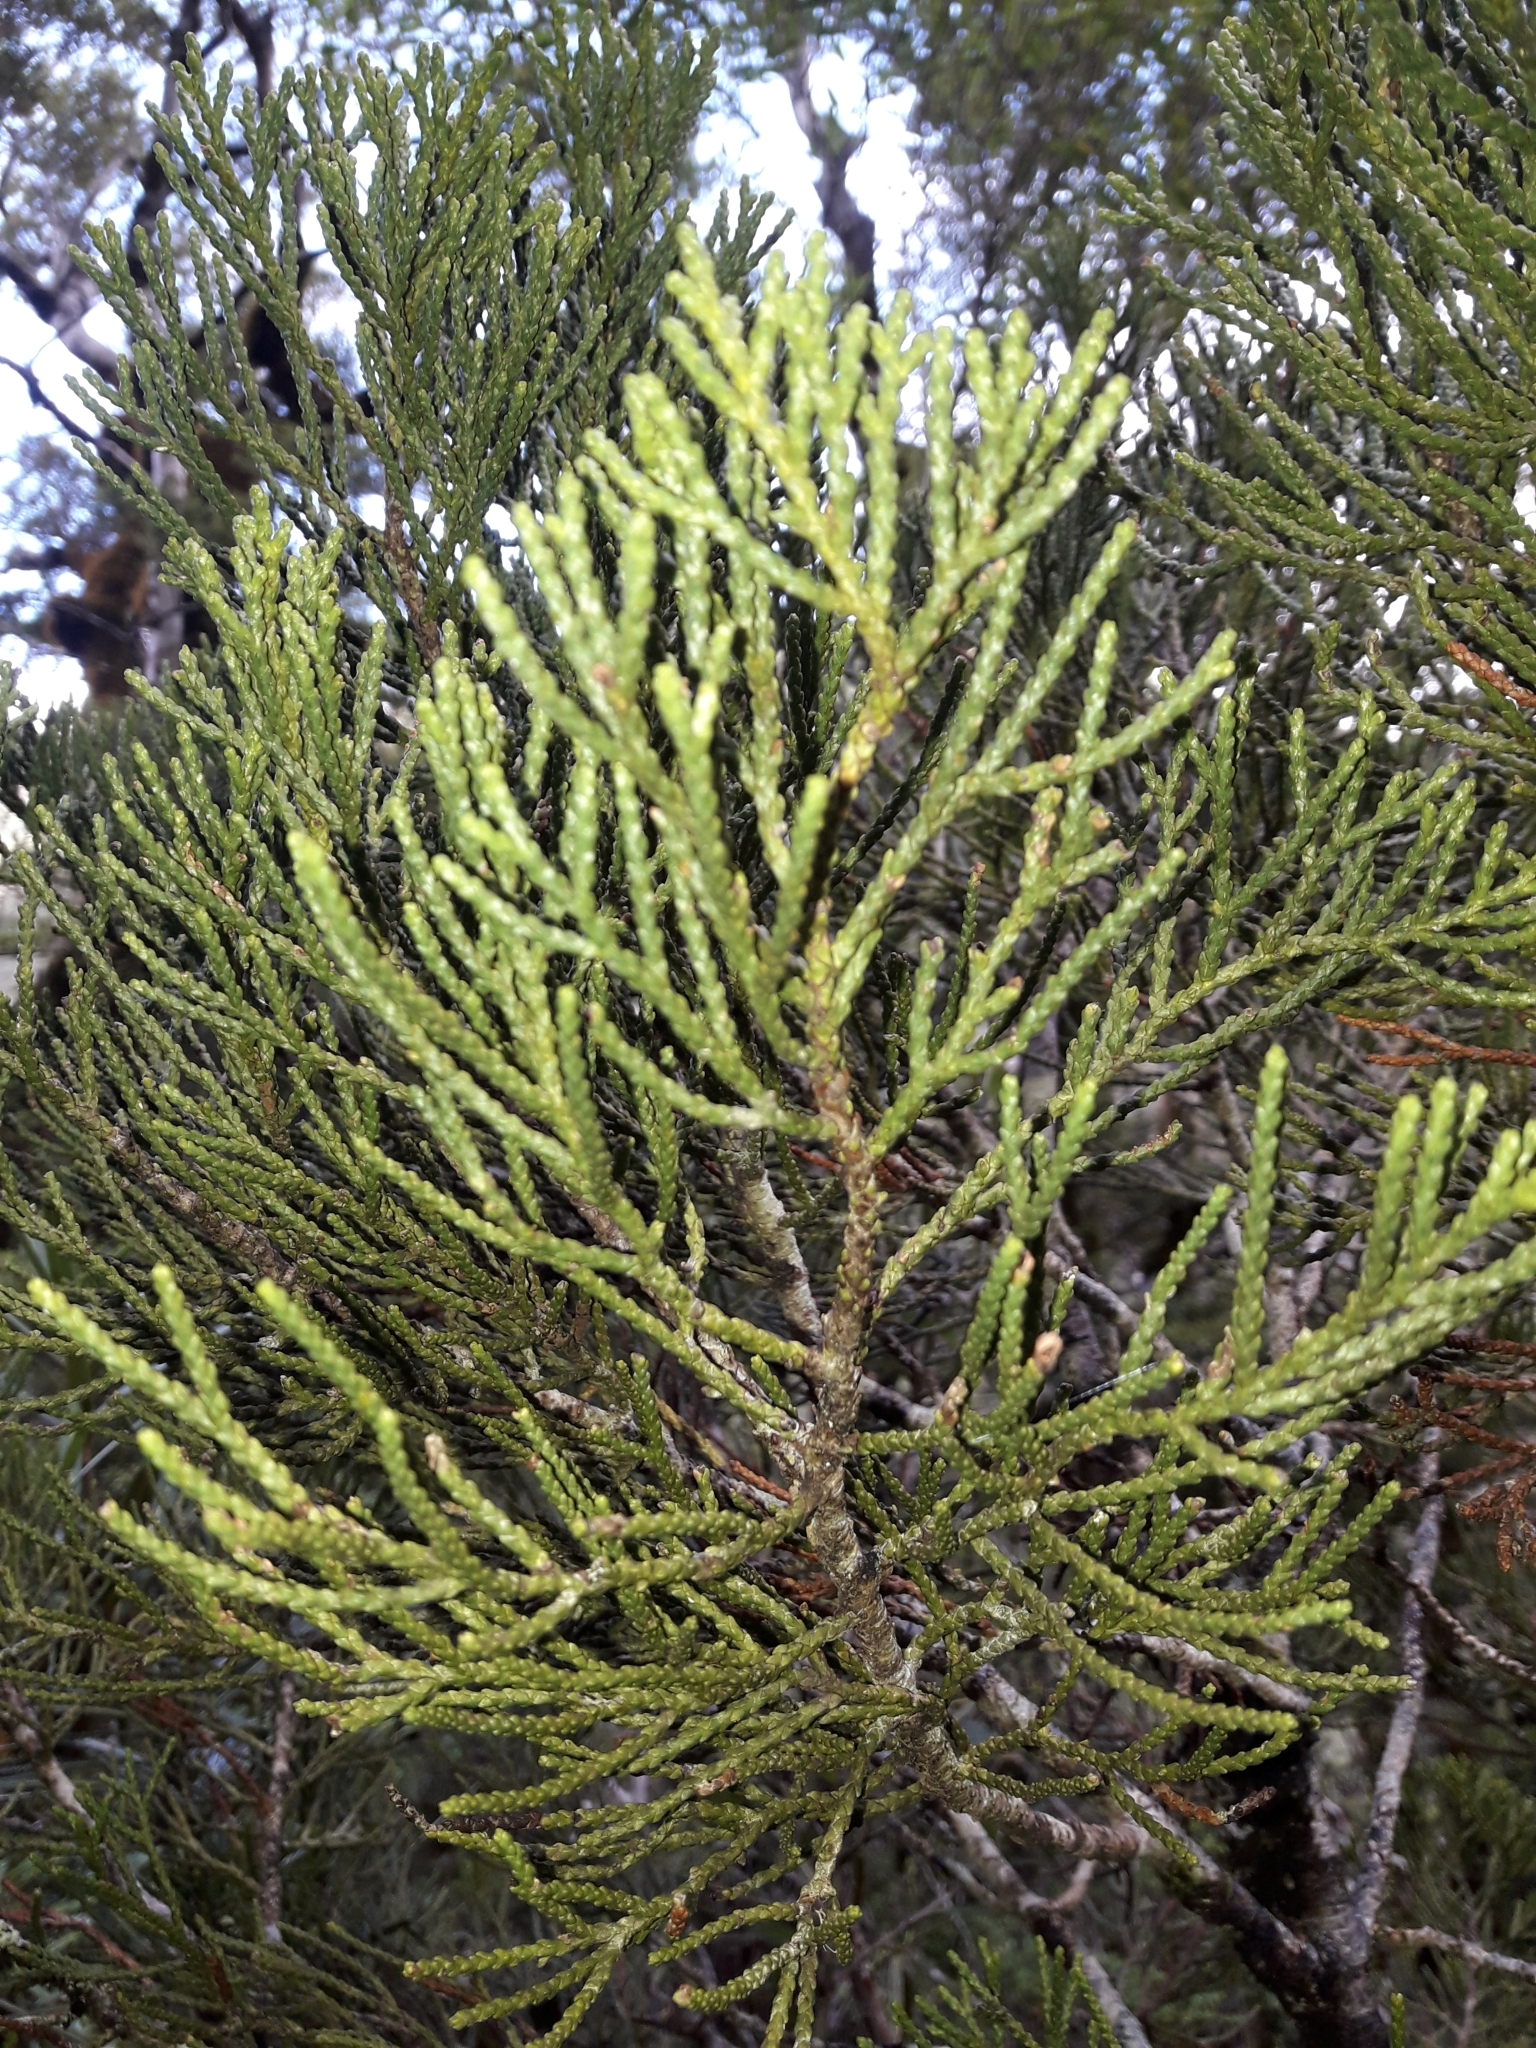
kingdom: Plantae
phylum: Tracheophyta
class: Pinopsida
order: Pinales
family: Podocarpaceae
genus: Halocarpus
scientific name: Halocarpus biformis
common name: Alpine tarwood
